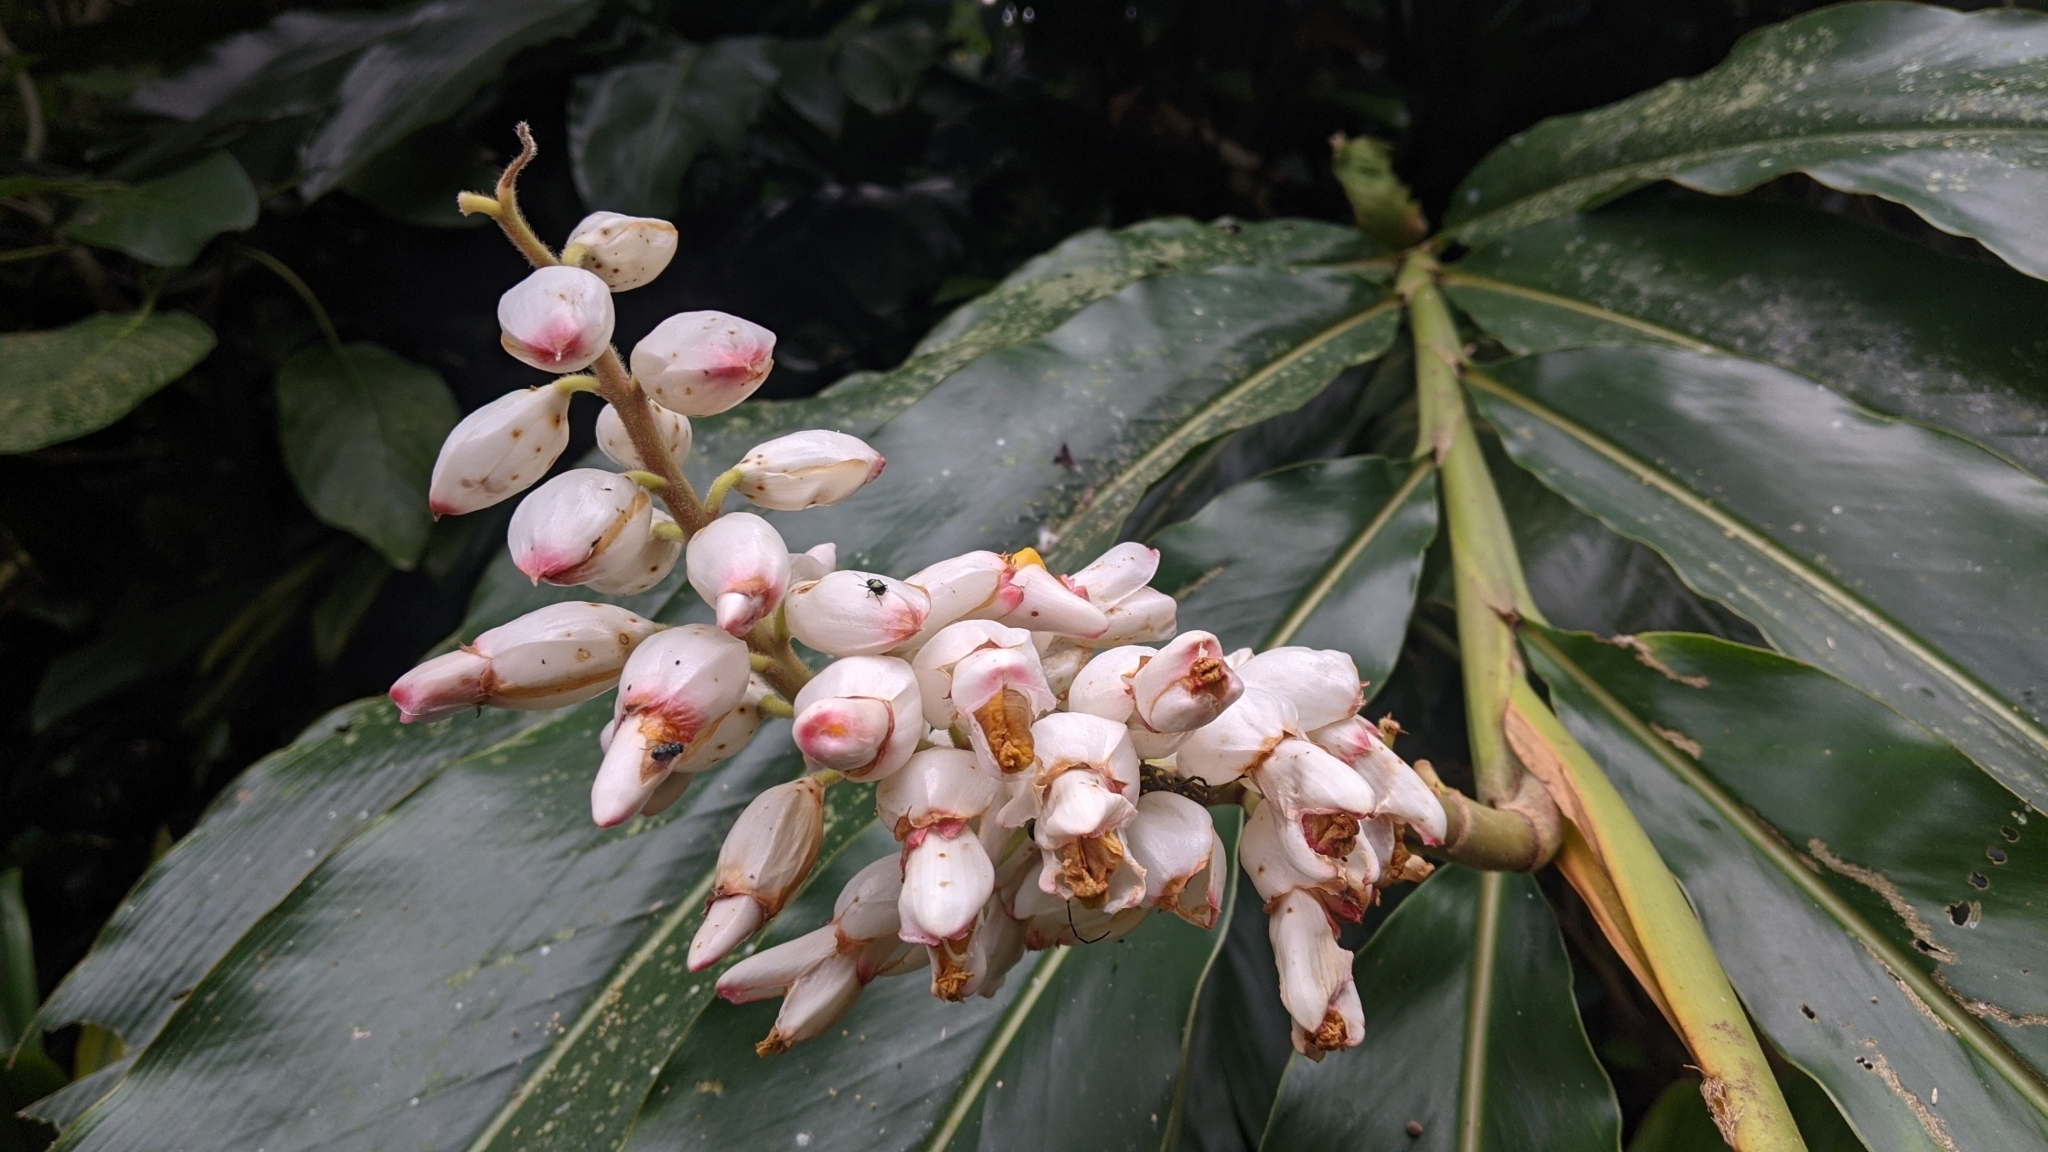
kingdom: Plantae
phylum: Tracheophyta
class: Liliopsida
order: Zingiberales
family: Zingiberaceae
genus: Alpinia
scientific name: Alpinia uraiensis
